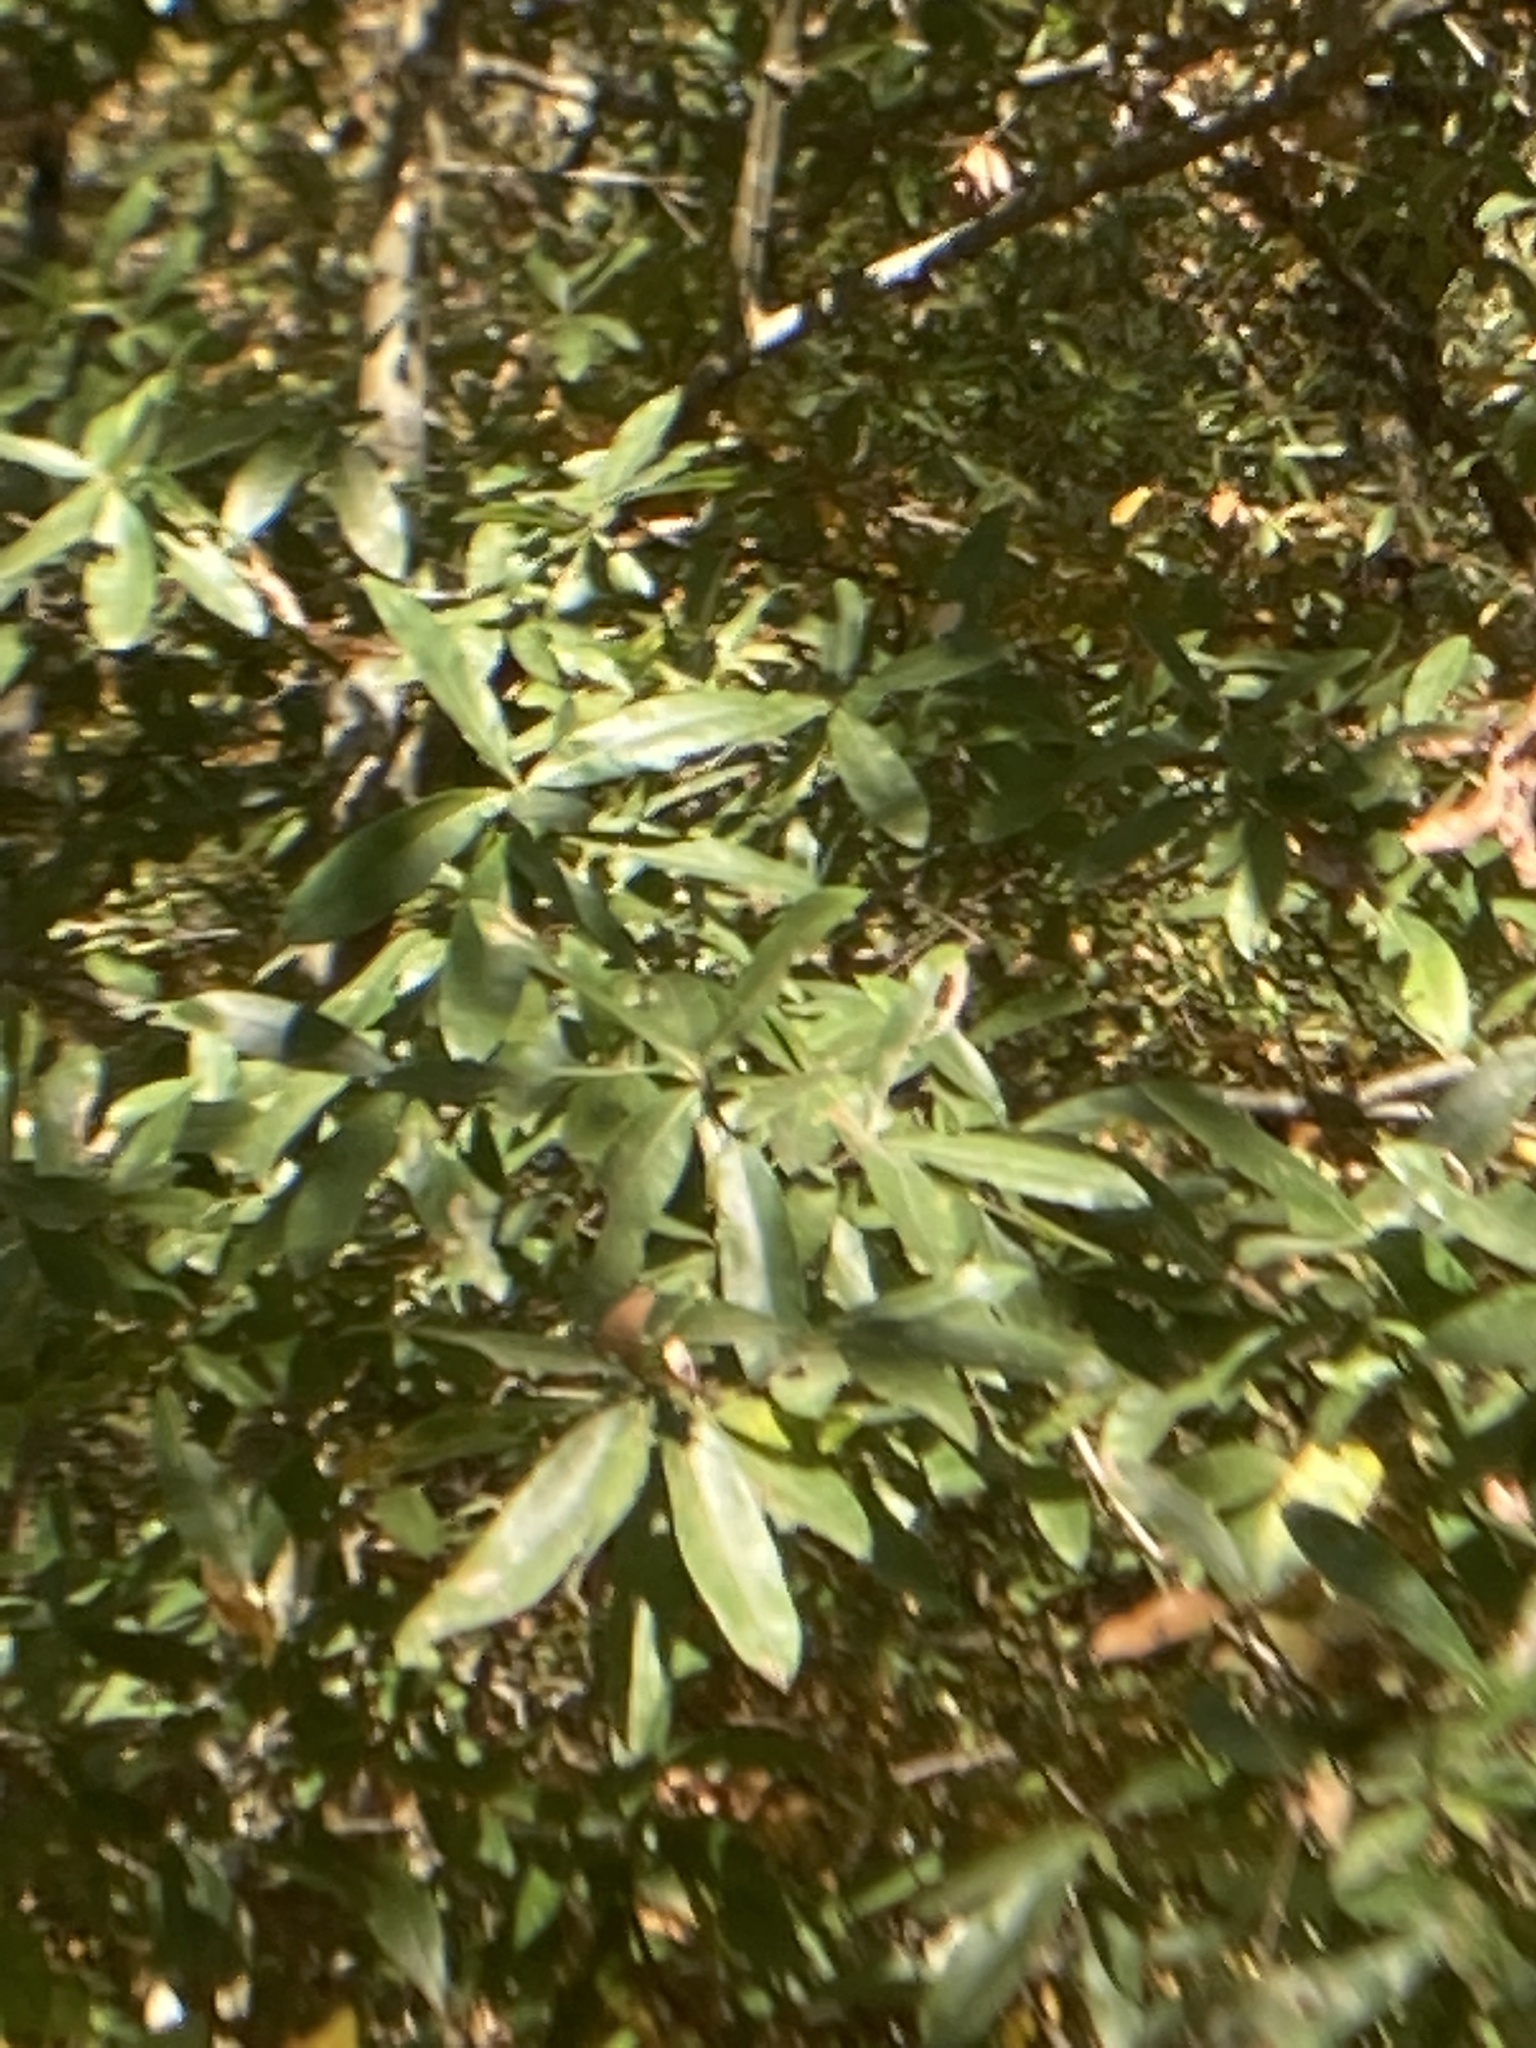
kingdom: Plantae
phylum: Tracheophyta
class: Magnoliopsida
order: Fagales
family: Fagaceae
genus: Quercus
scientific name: Quercus phellos
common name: Willow oak
